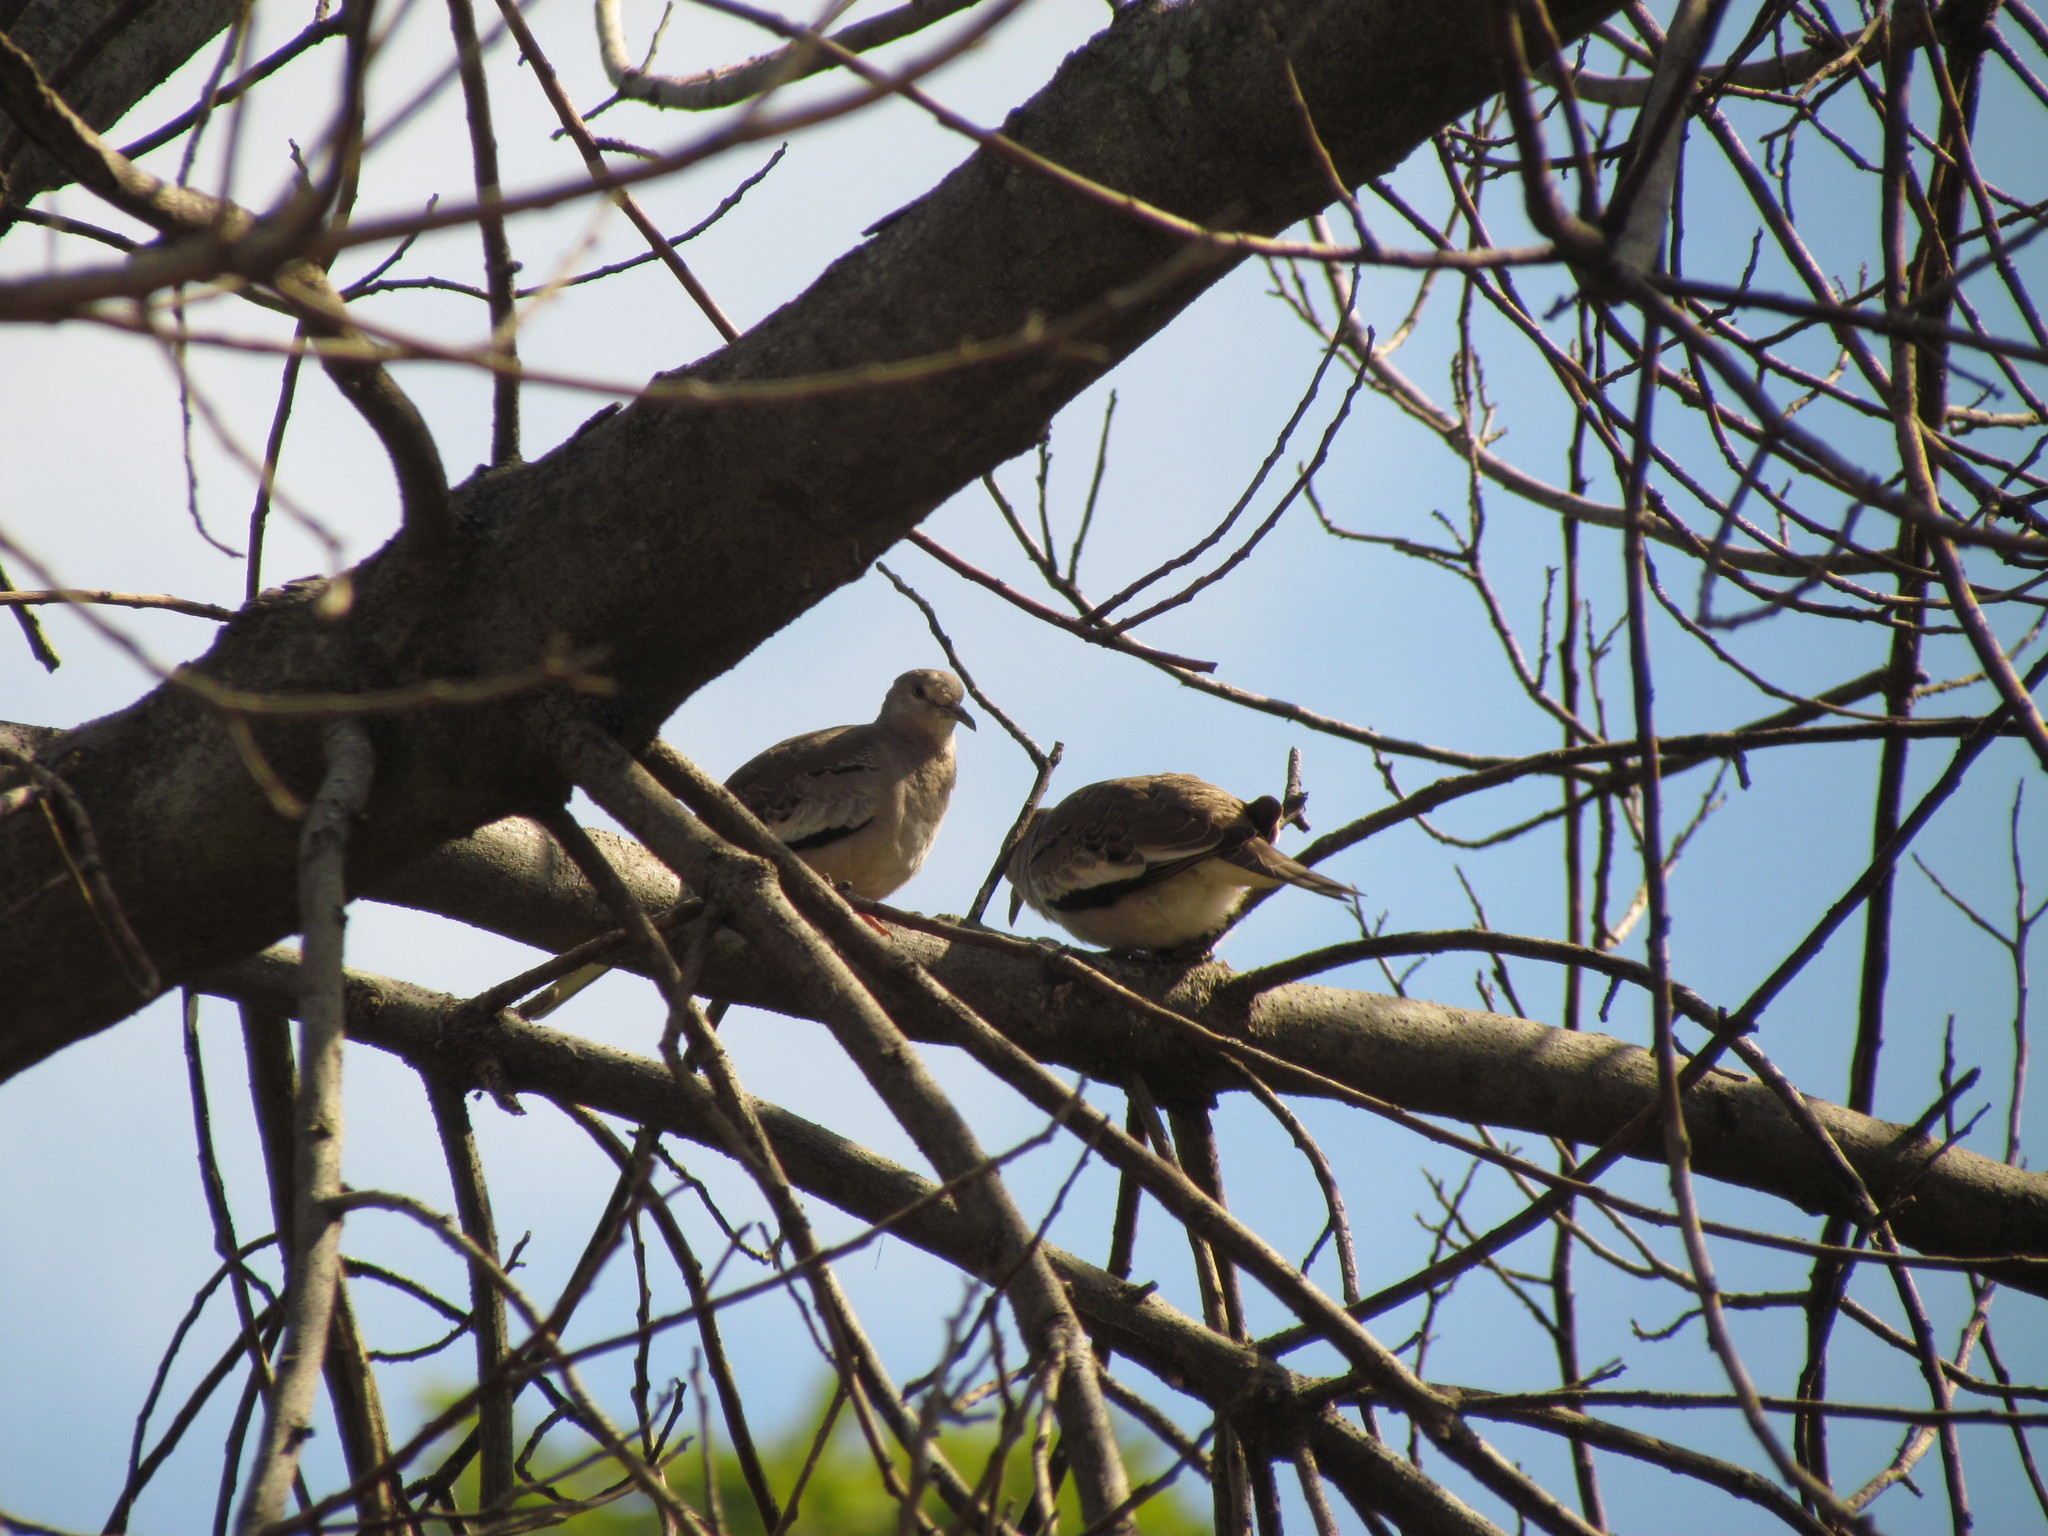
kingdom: Animalia
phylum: Chordata
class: Aves
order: Columbiformes
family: Columbidae
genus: Columbina
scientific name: Columbina picui
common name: Picui ground dove
